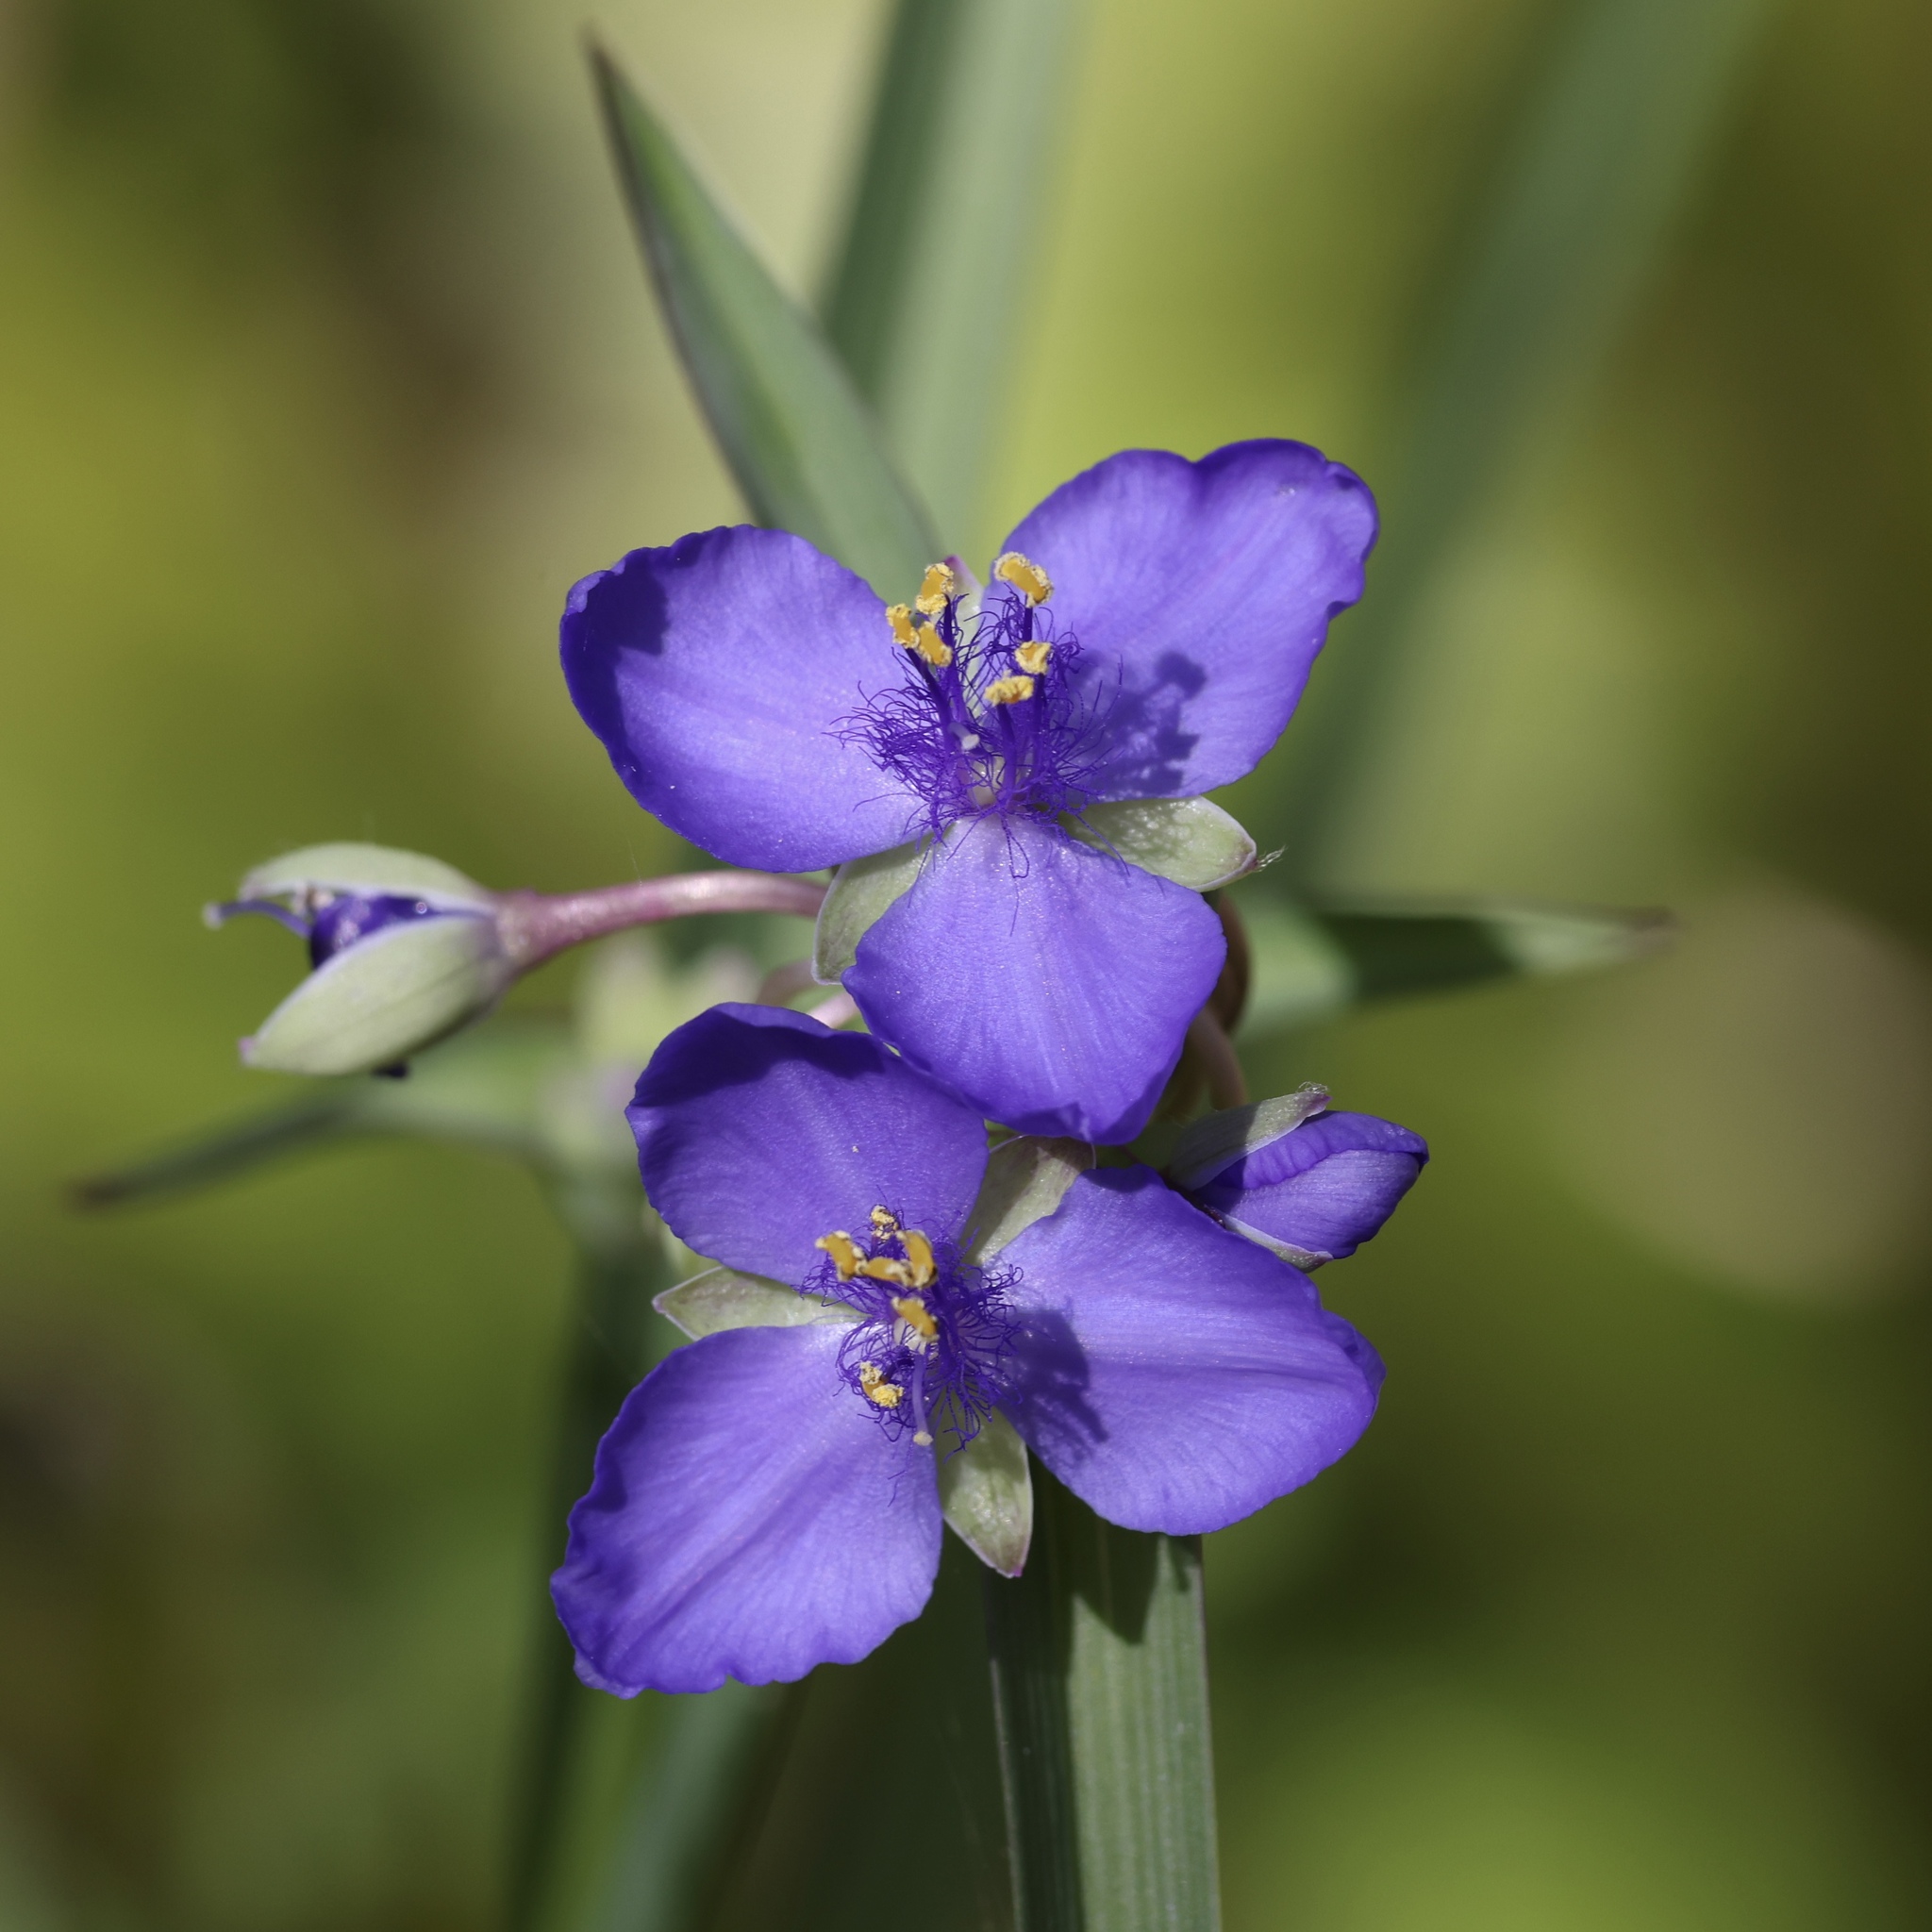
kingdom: Plantae
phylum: Tracheophyta
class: Liliopsida
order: Commelinales
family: Commelinaceae
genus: Tradescantia
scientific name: Tradescantia ohiensis
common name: Ohio spiderwort
